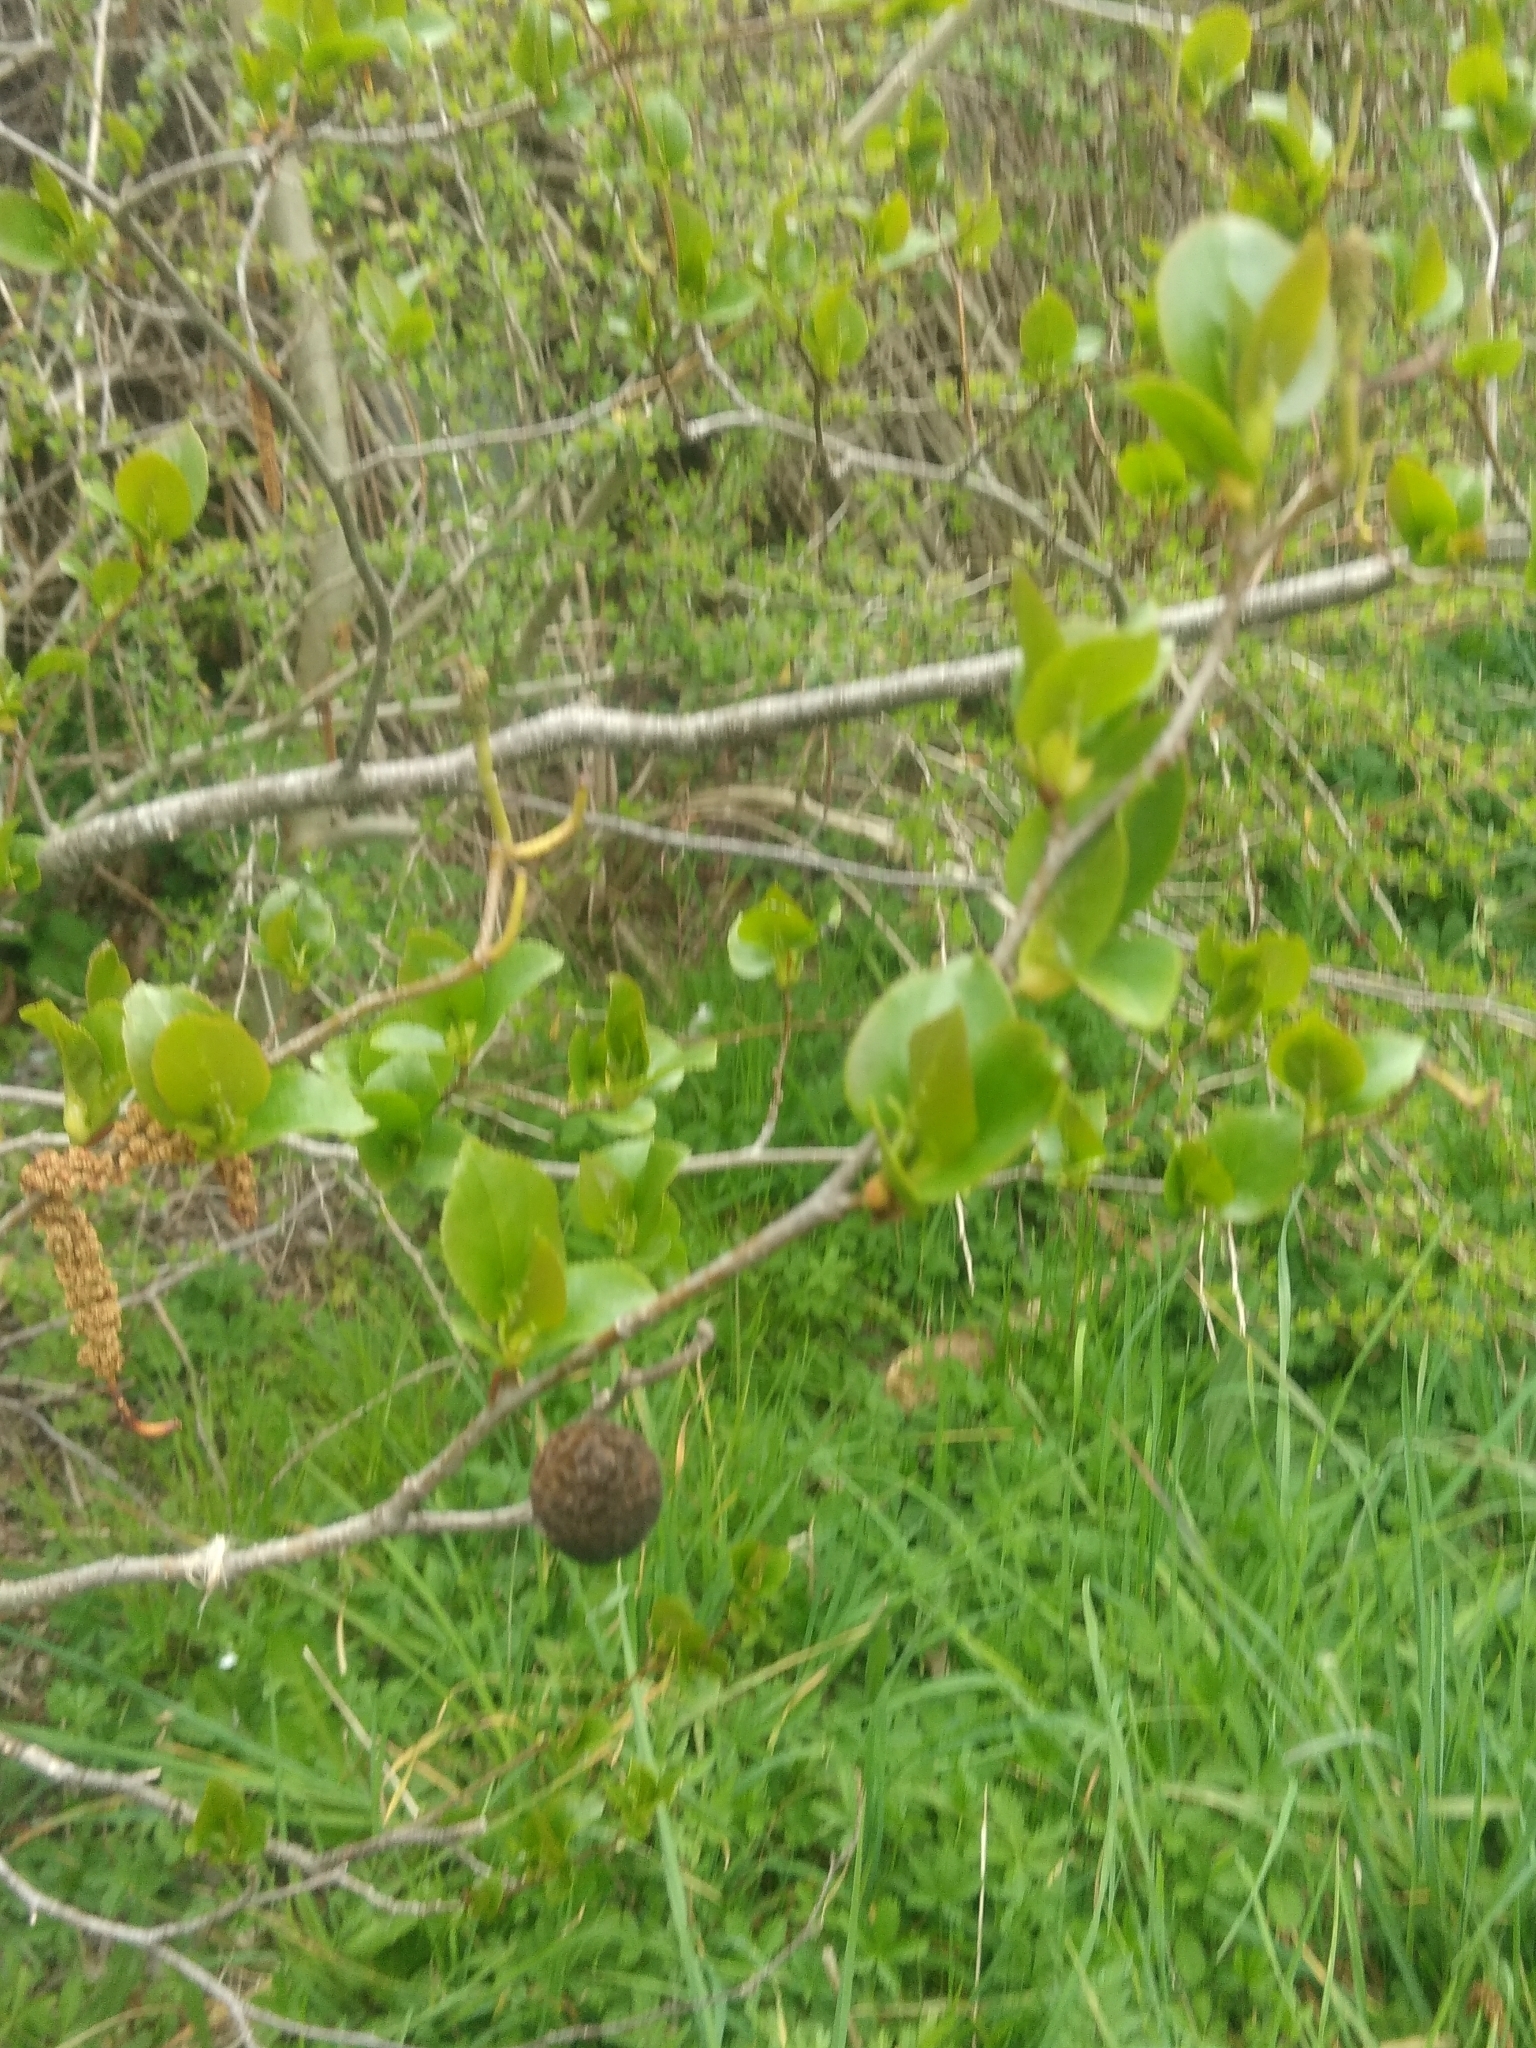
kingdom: Plantae
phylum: Tracheophyta
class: Magnoliopsida
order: Fagales
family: Betulaceae
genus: Alnus
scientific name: Alnus cordata
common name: Italian alder
